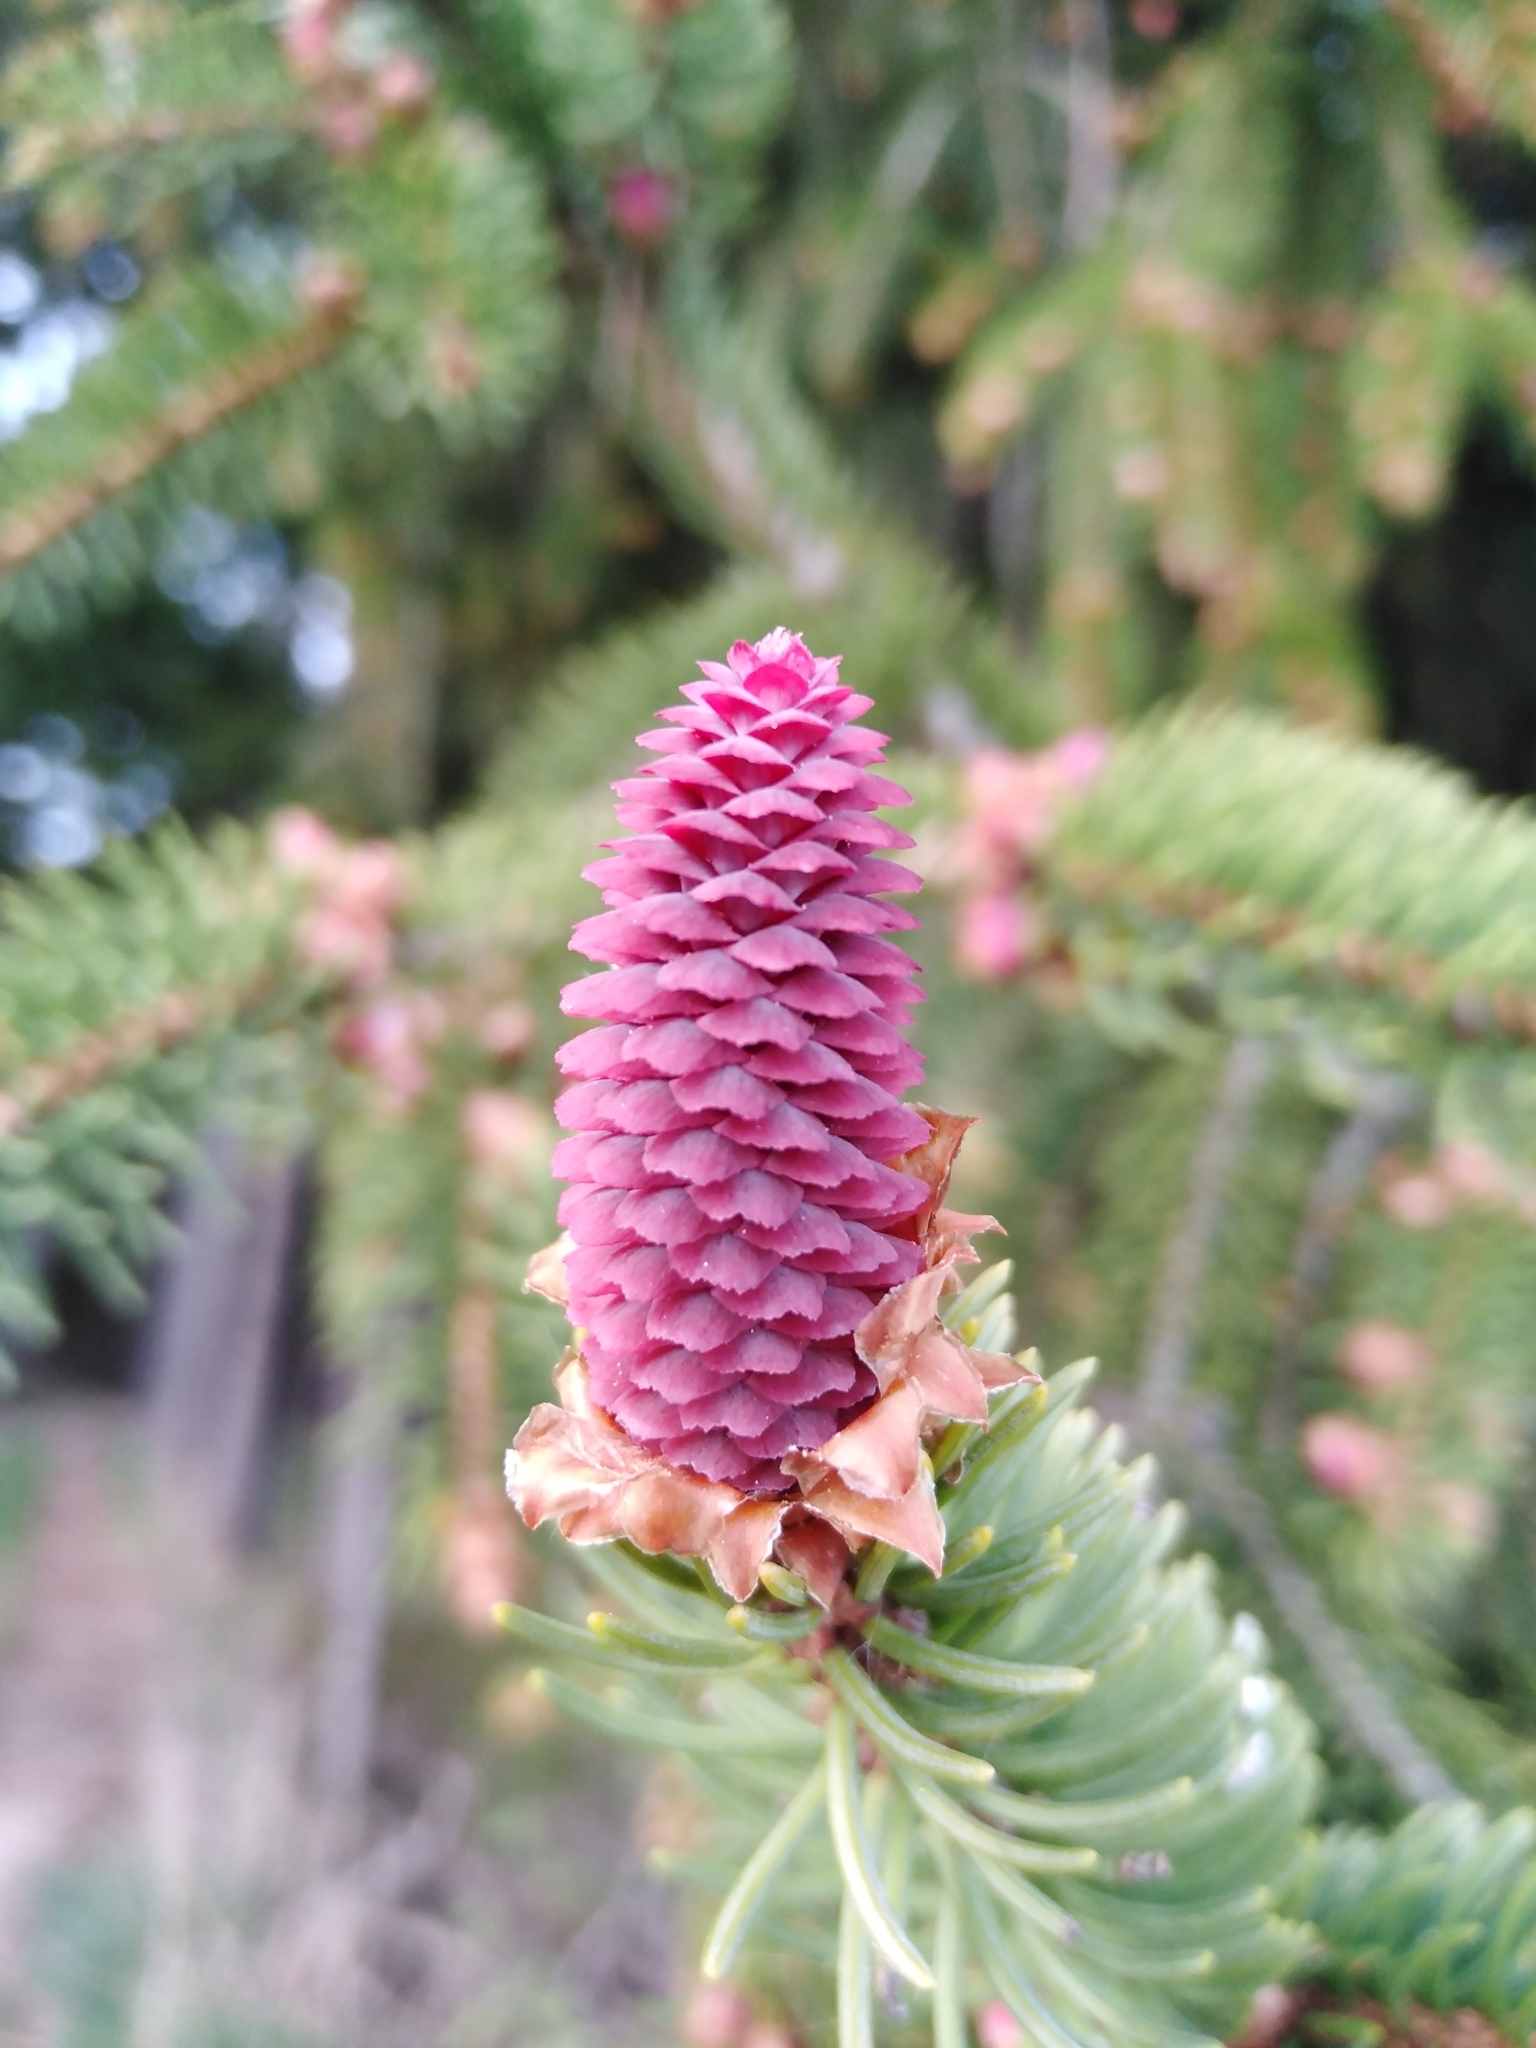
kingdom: Plantae
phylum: Tracheophyta
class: Pinopsida
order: Pinales
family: Pinaceae
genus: Picea
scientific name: Picea abies
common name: Norway spruce
